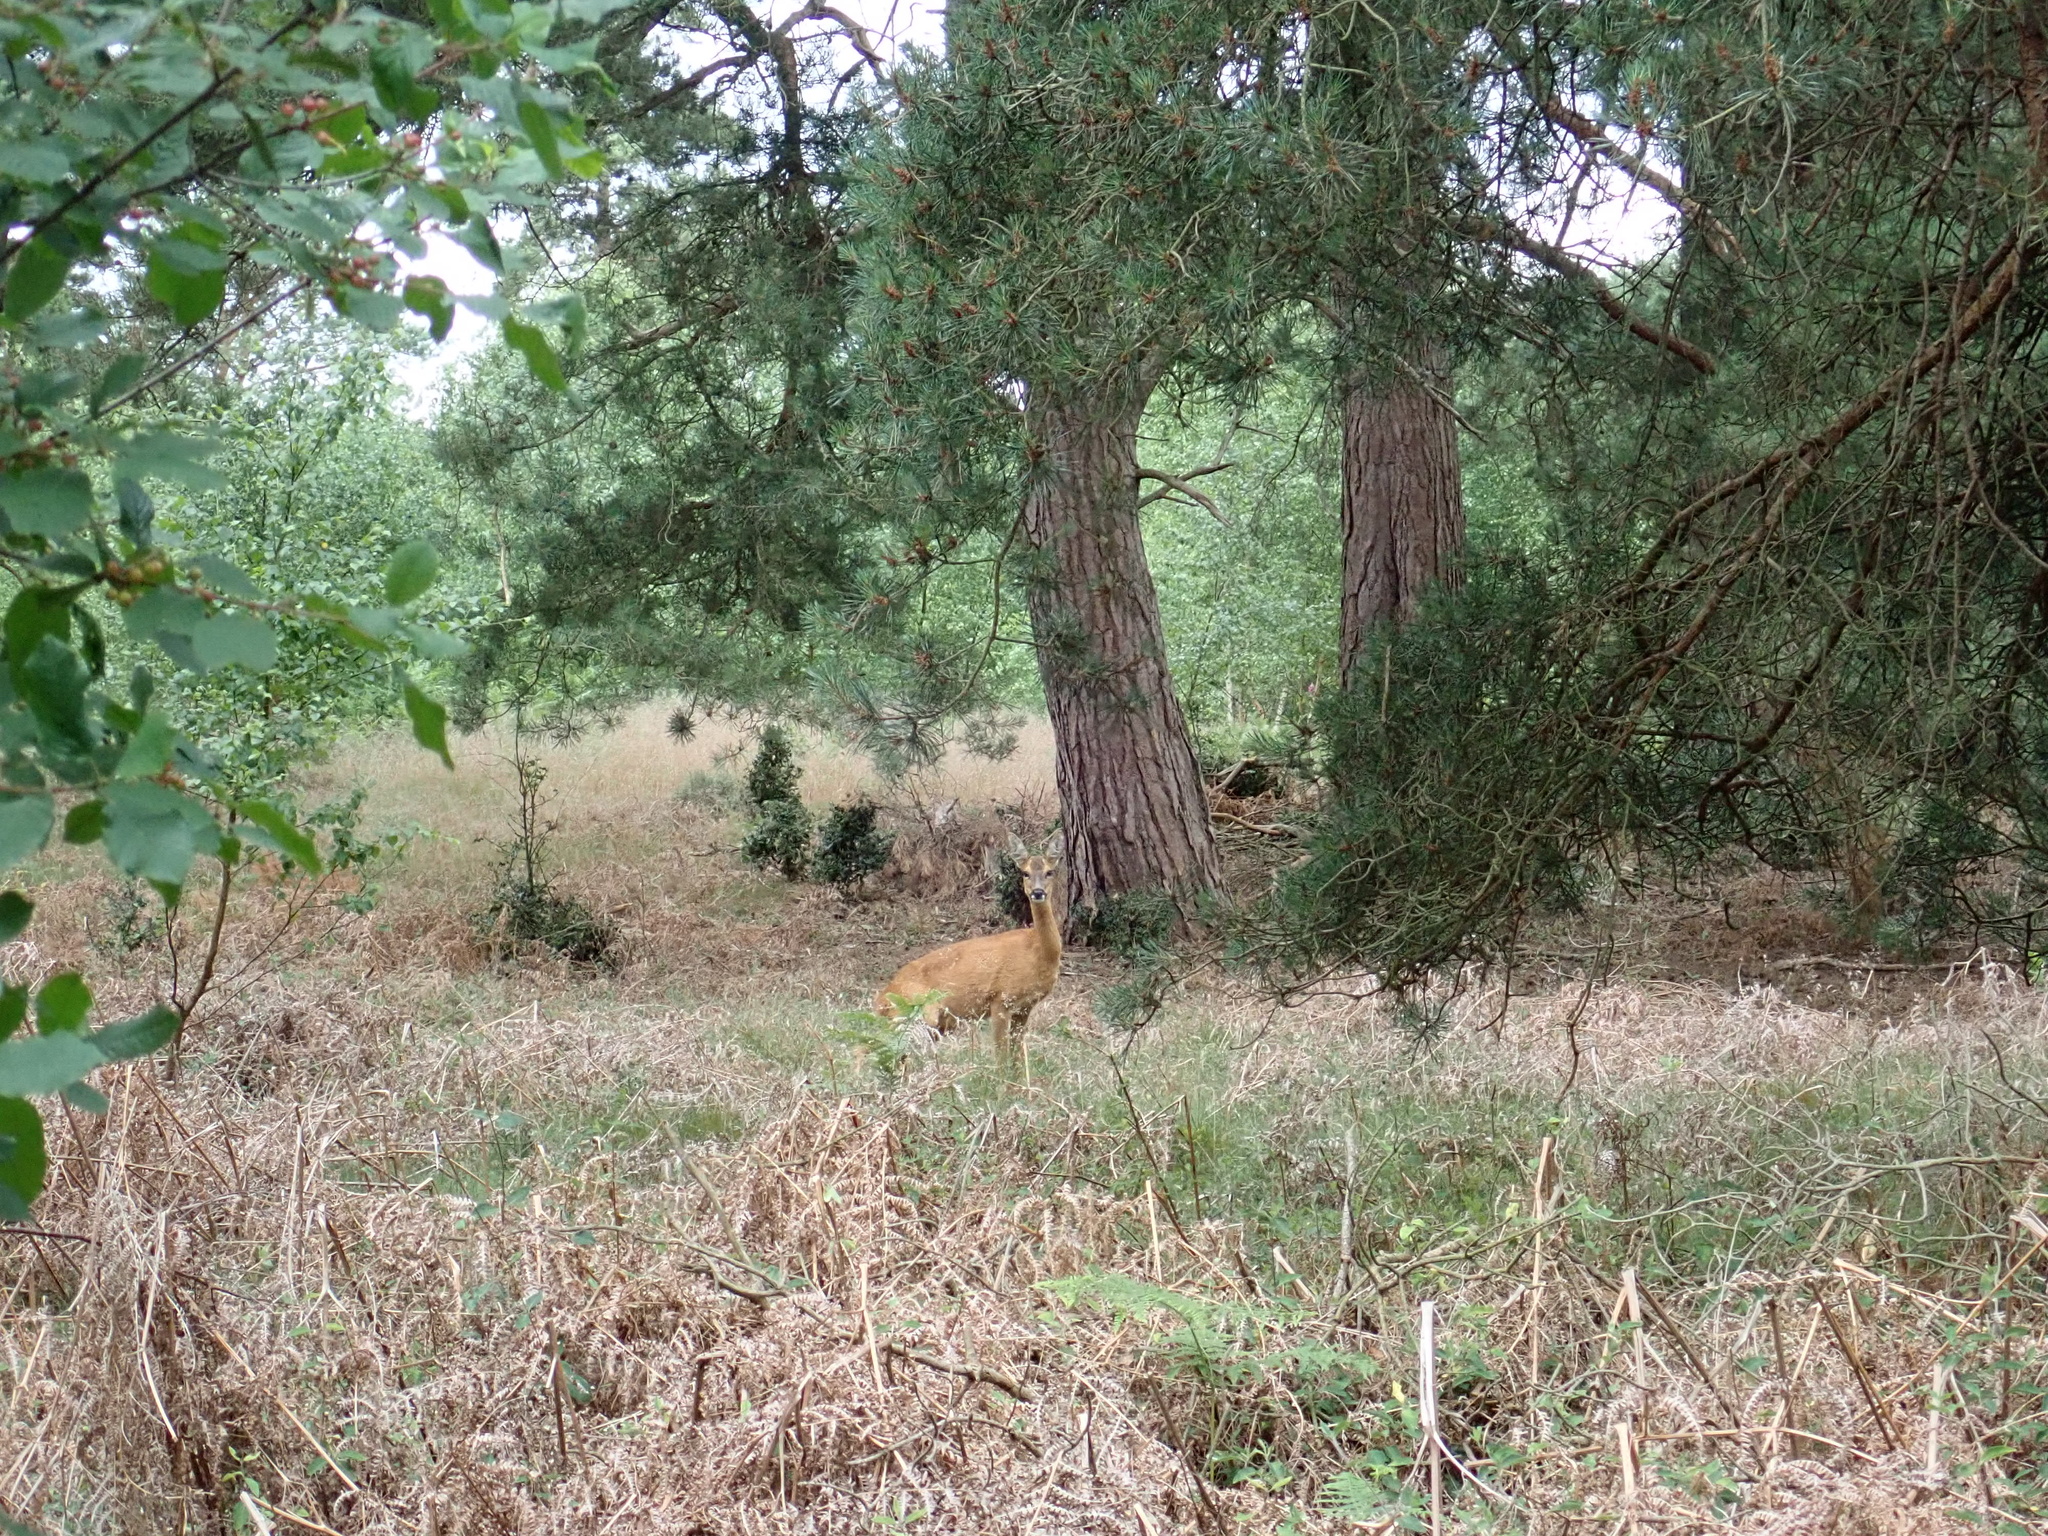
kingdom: Animalia
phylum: Chordata
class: Mammalia
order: Artiodactyla
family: Cervidae
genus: Capreolus
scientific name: Capreolus capreolus
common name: Western roe deer
